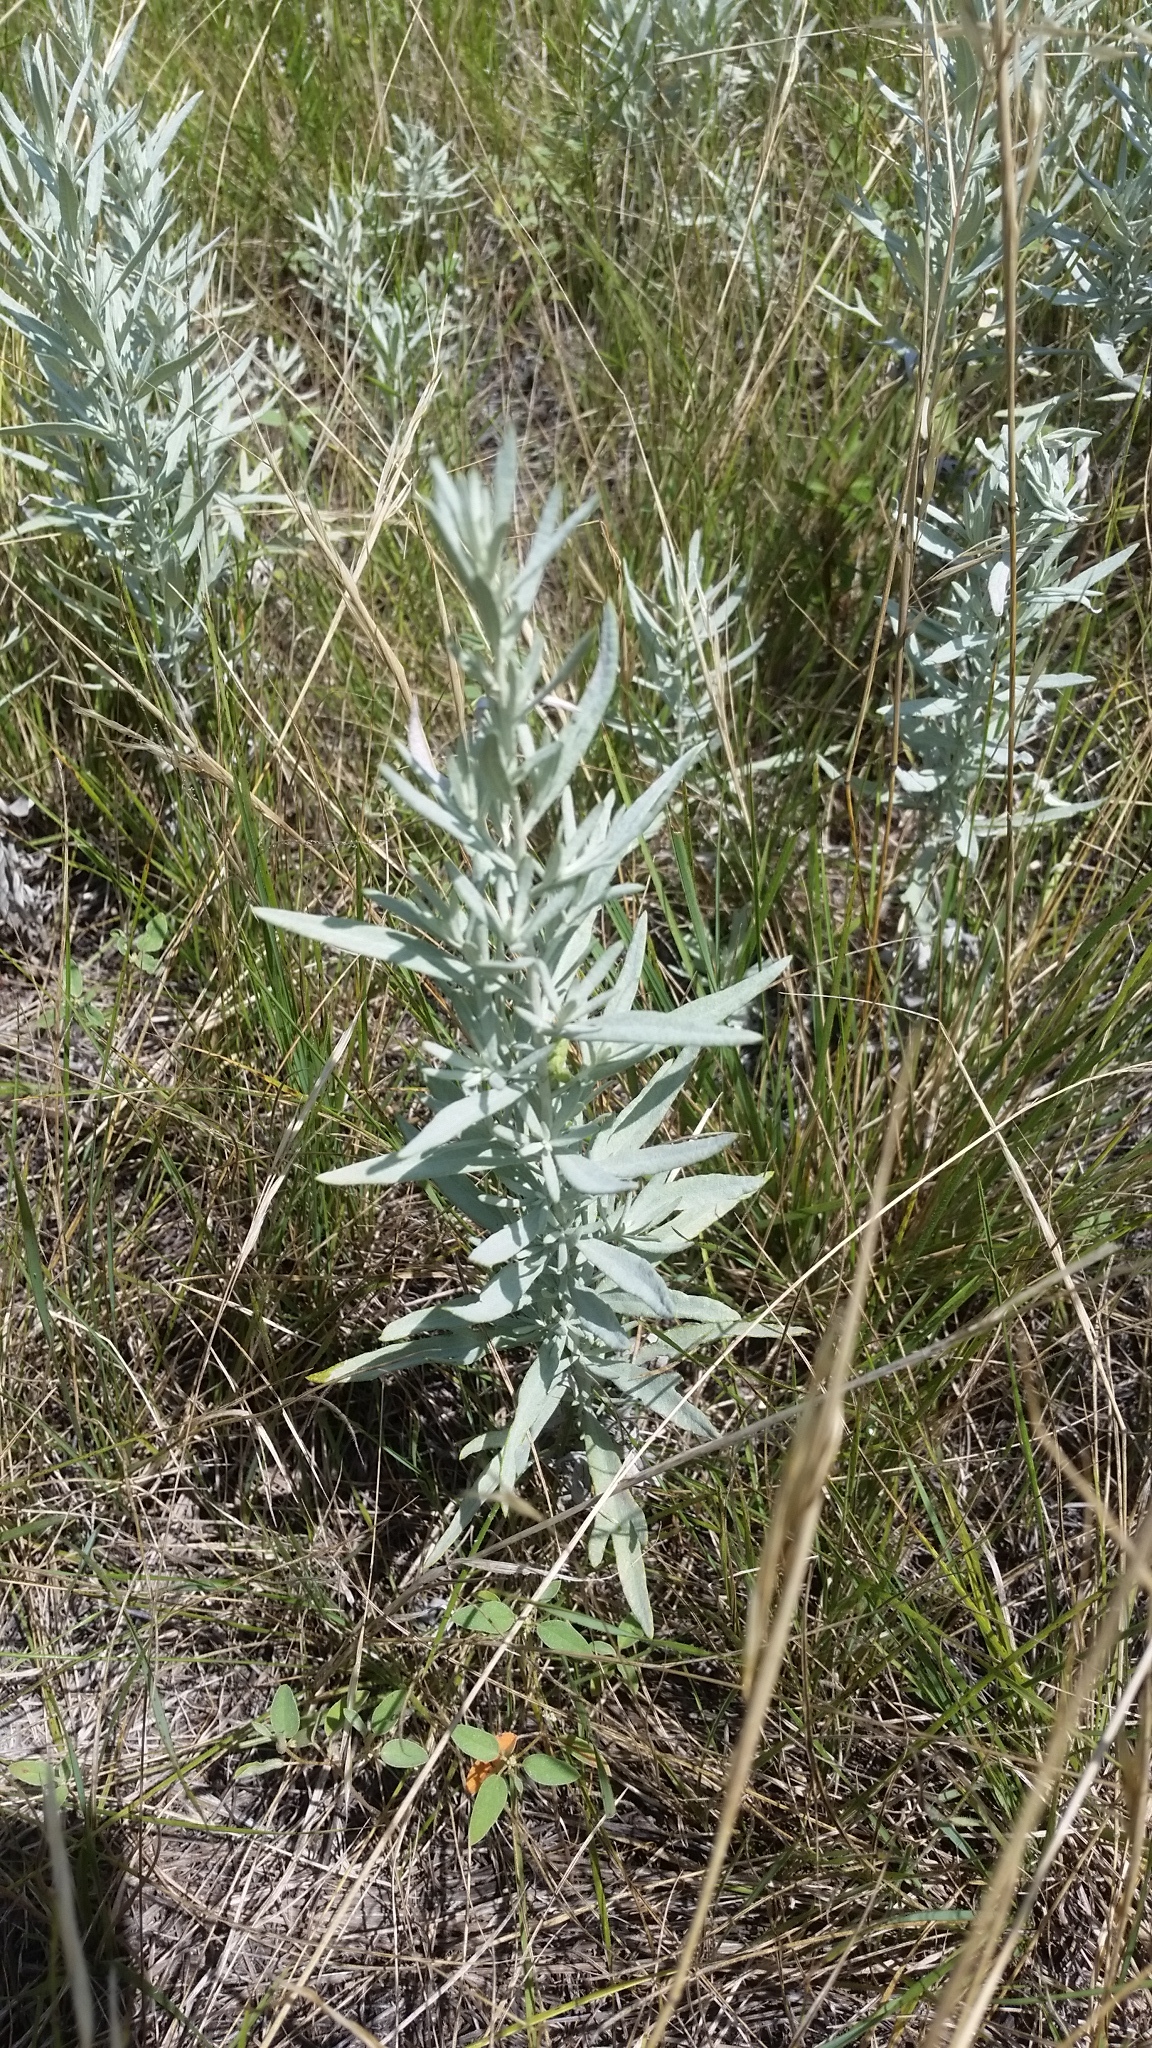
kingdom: Plantae
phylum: Tracheophyta
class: Magnoliopsida
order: Asterales
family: Asteraceae
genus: Artemisia
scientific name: Artemisia ludoviciana
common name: Western mugwort
